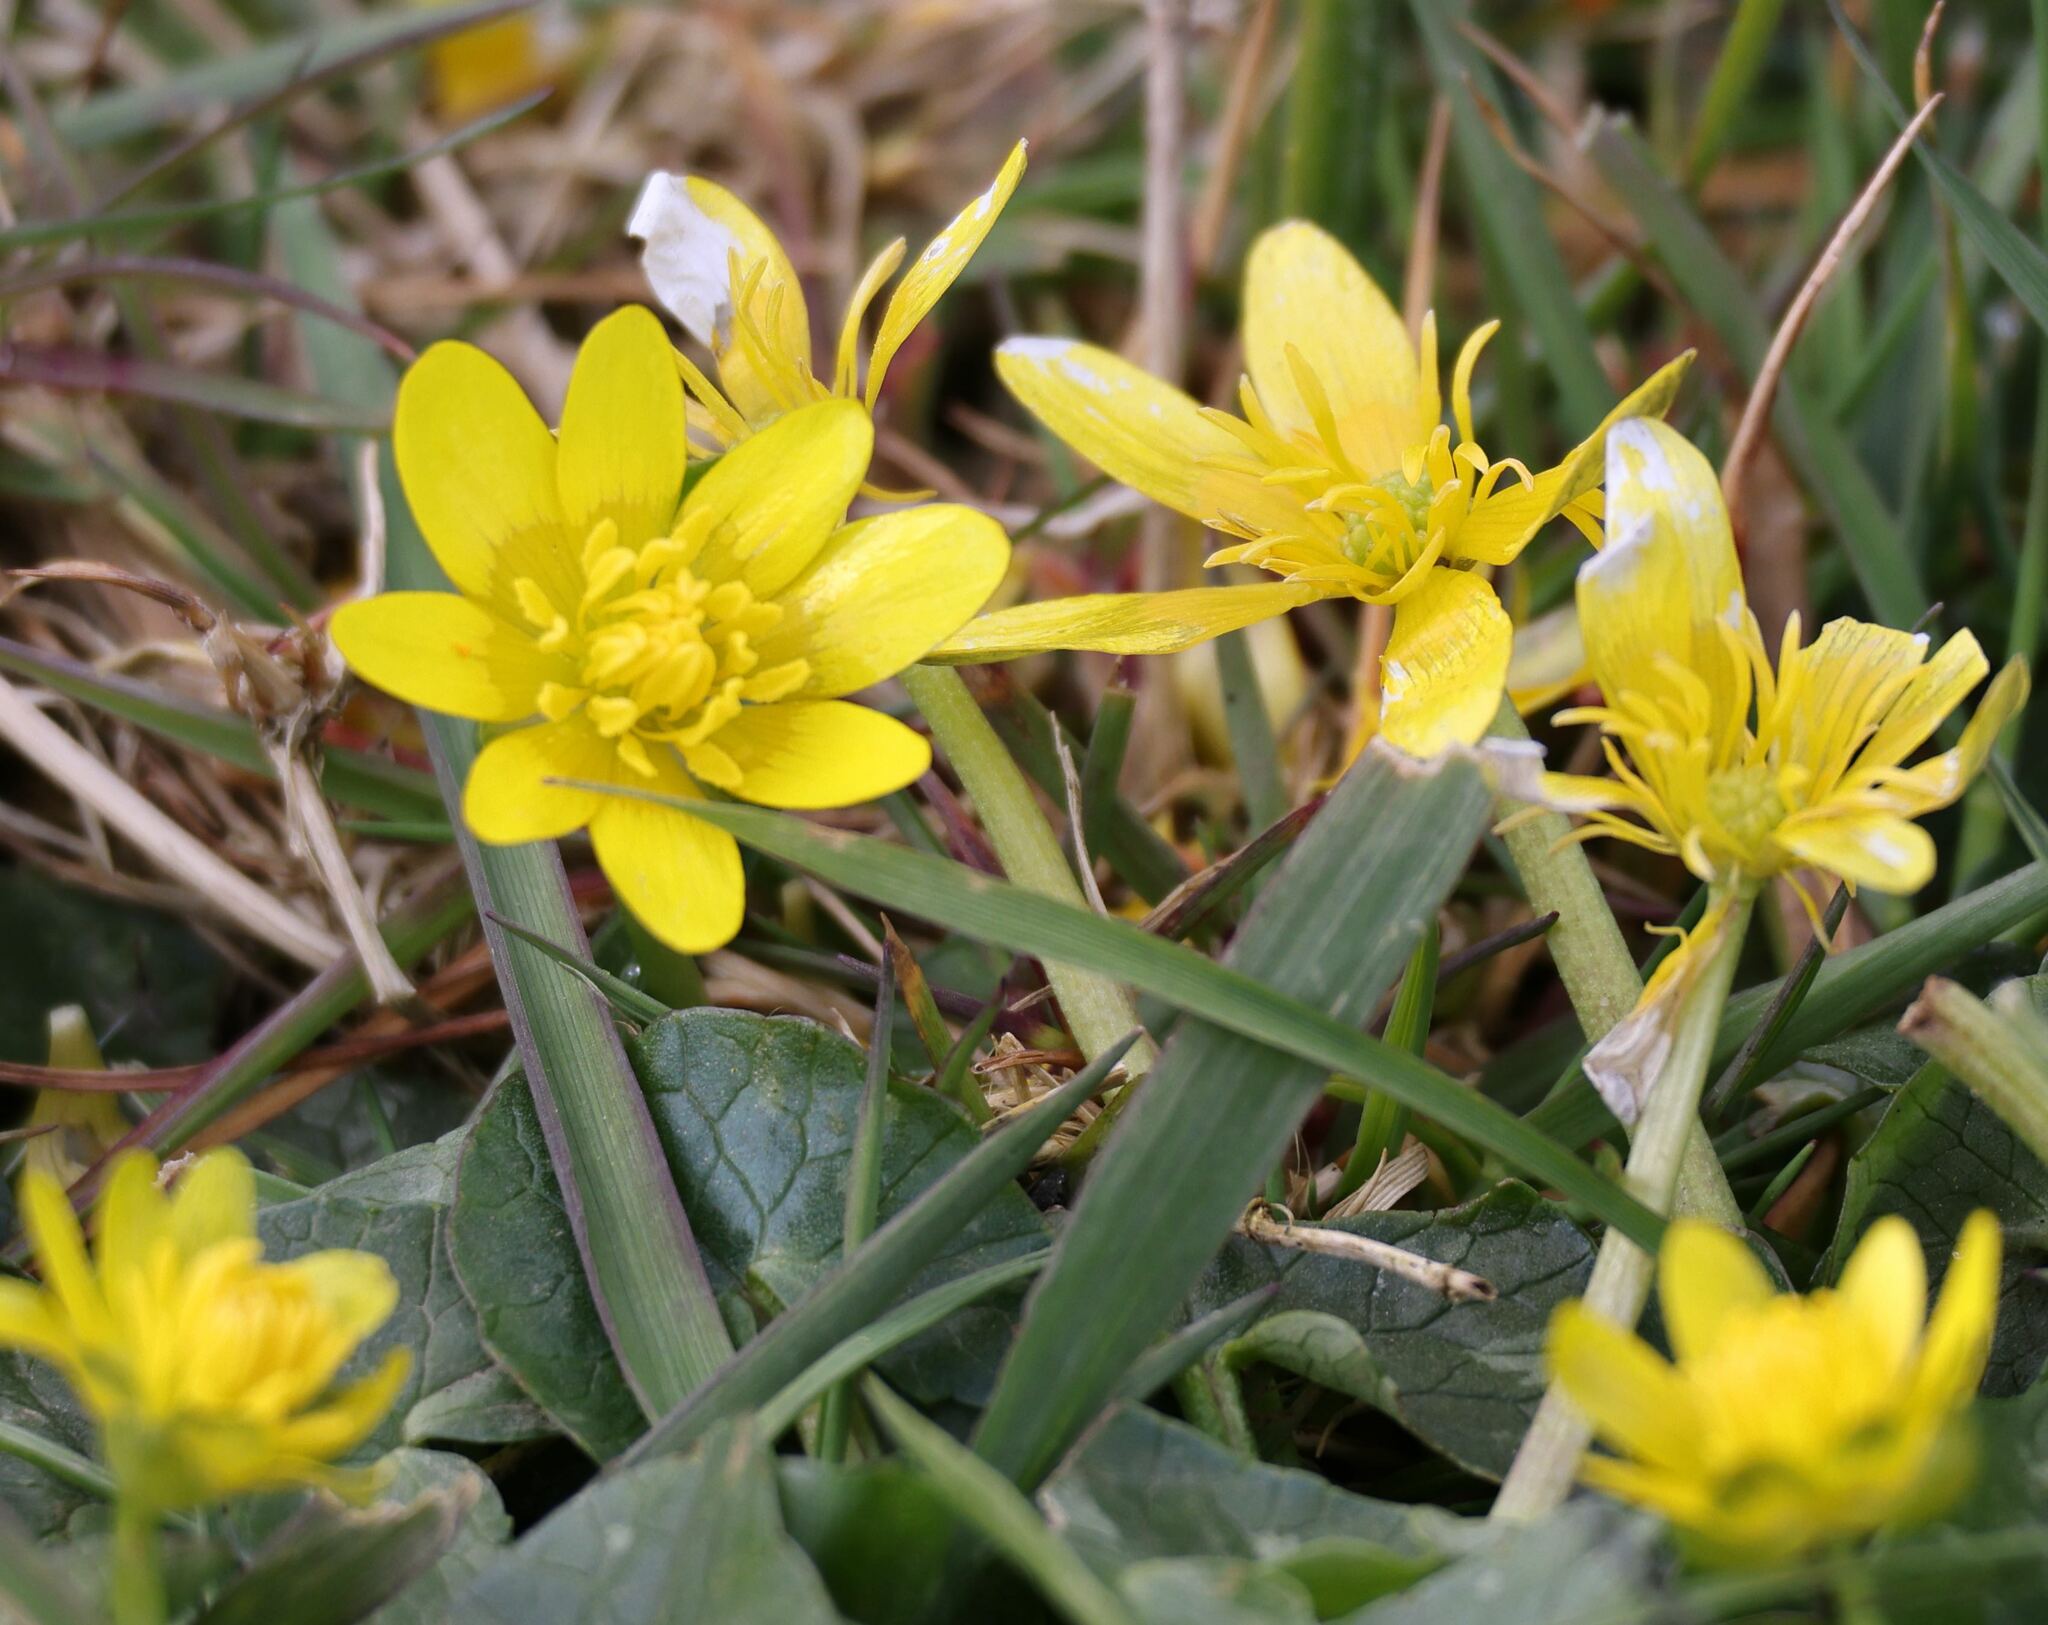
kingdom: Plantae
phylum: Tracheophyta
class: Magnoliopsida
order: Ranunculales
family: Ranunculaceae
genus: Ficaria
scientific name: Ficaria verna
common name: Lesser celandine
